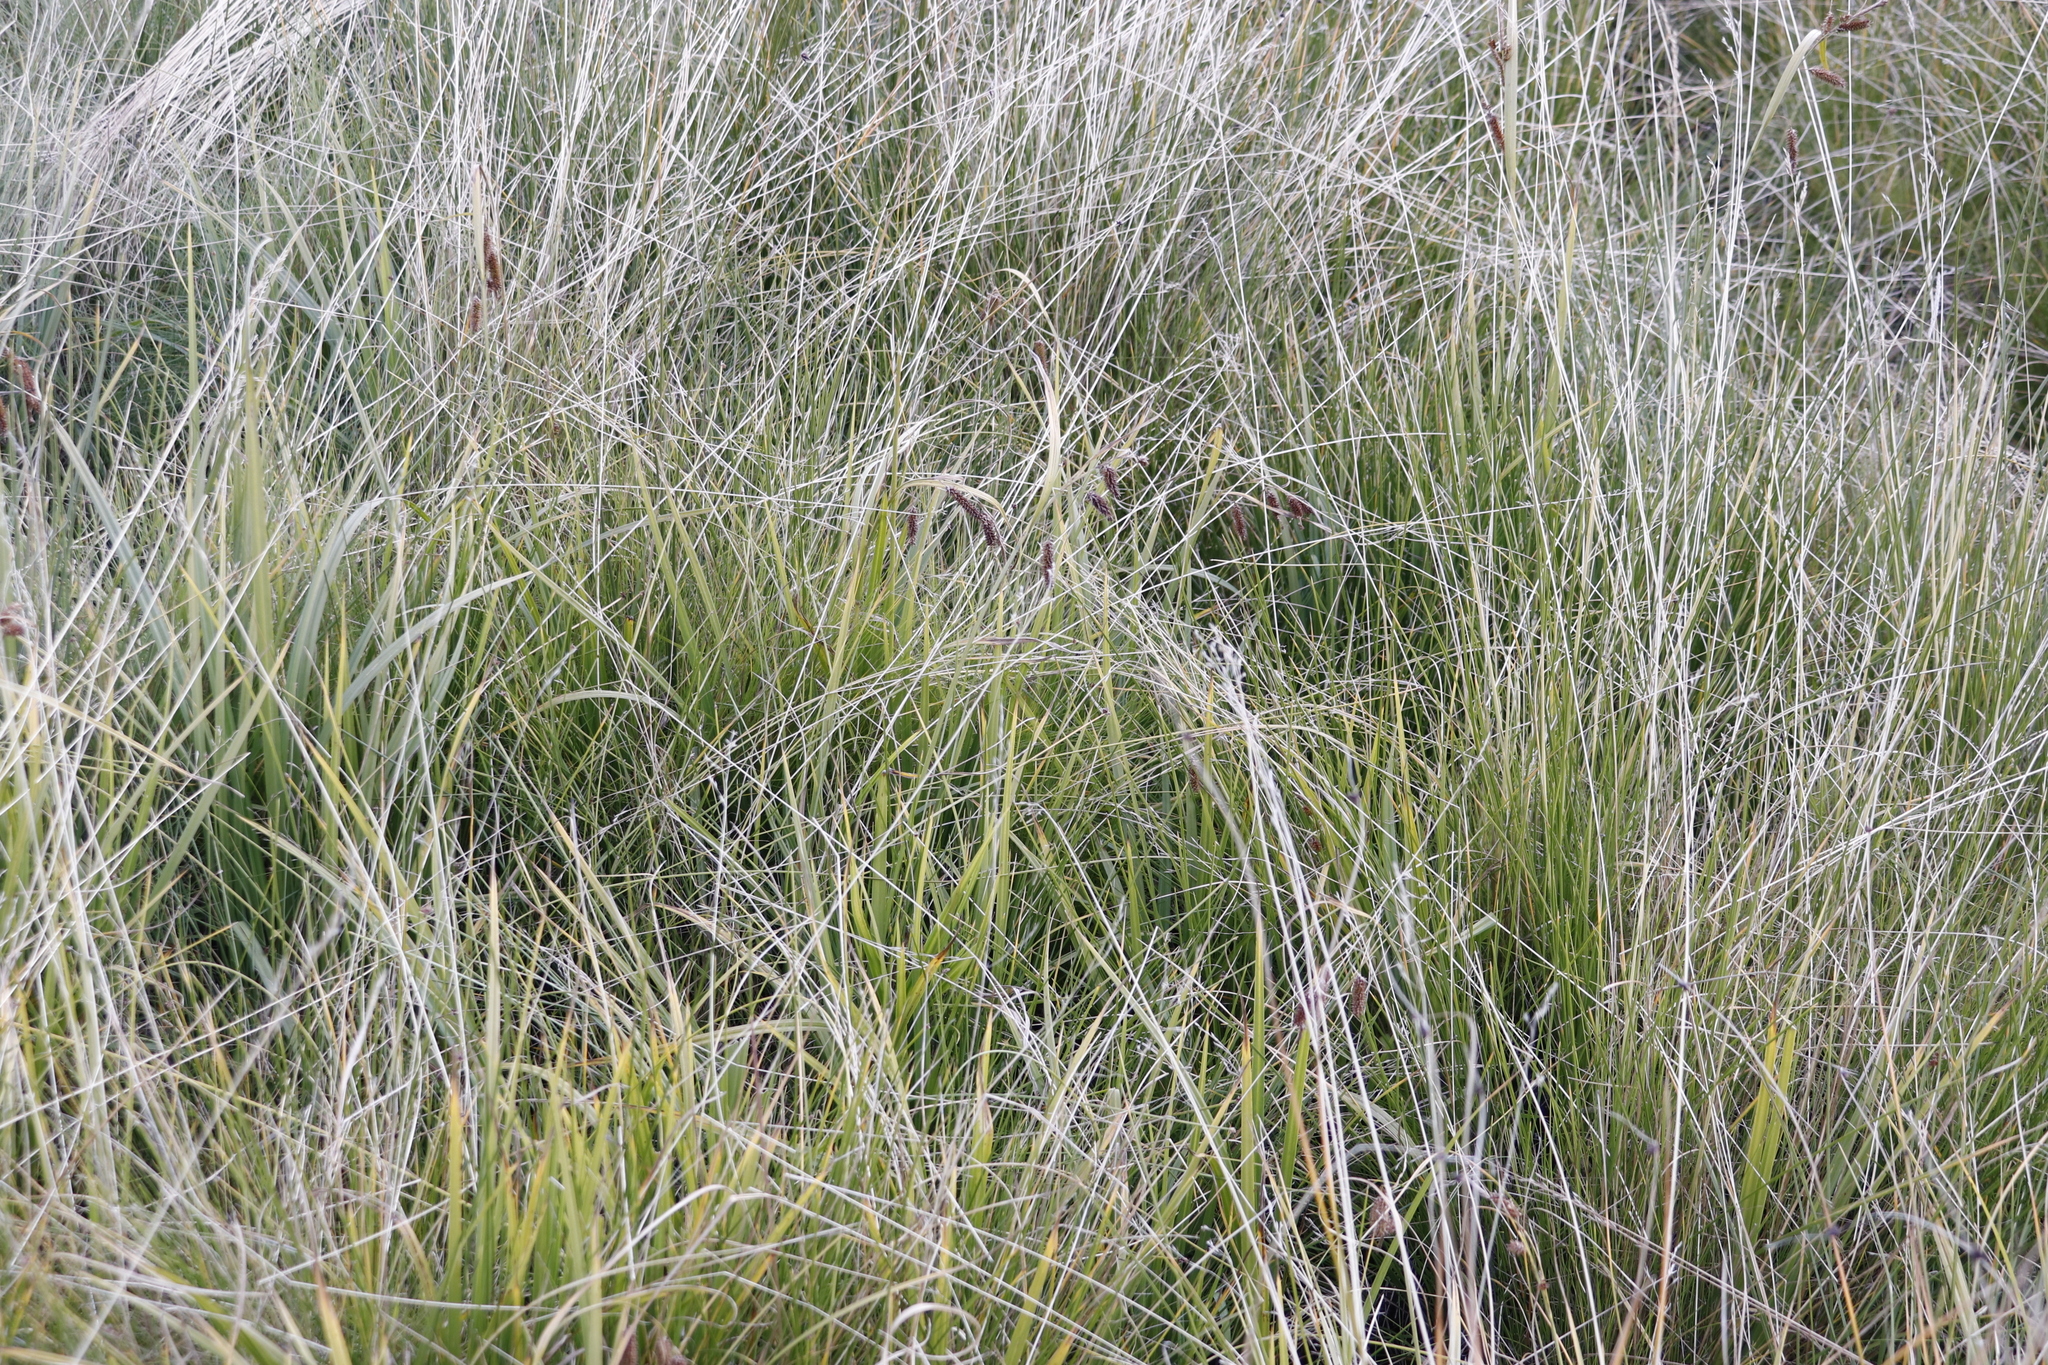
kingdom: Plantae
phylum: Tracheophyta
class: Liliopsida
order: Poales
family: Poaceae
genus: Stiburus
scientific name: Stiburus alopecuroides
